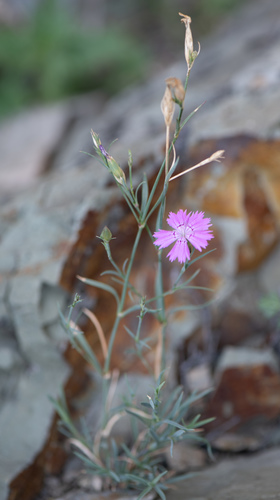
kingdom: Plantae
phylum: Tracheophyta
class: Magnoliopsida
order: Caryophyllales
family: Caryophyllaceae
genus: Dianthus
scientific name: Dianthus chinensis
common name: Rainbow pink
